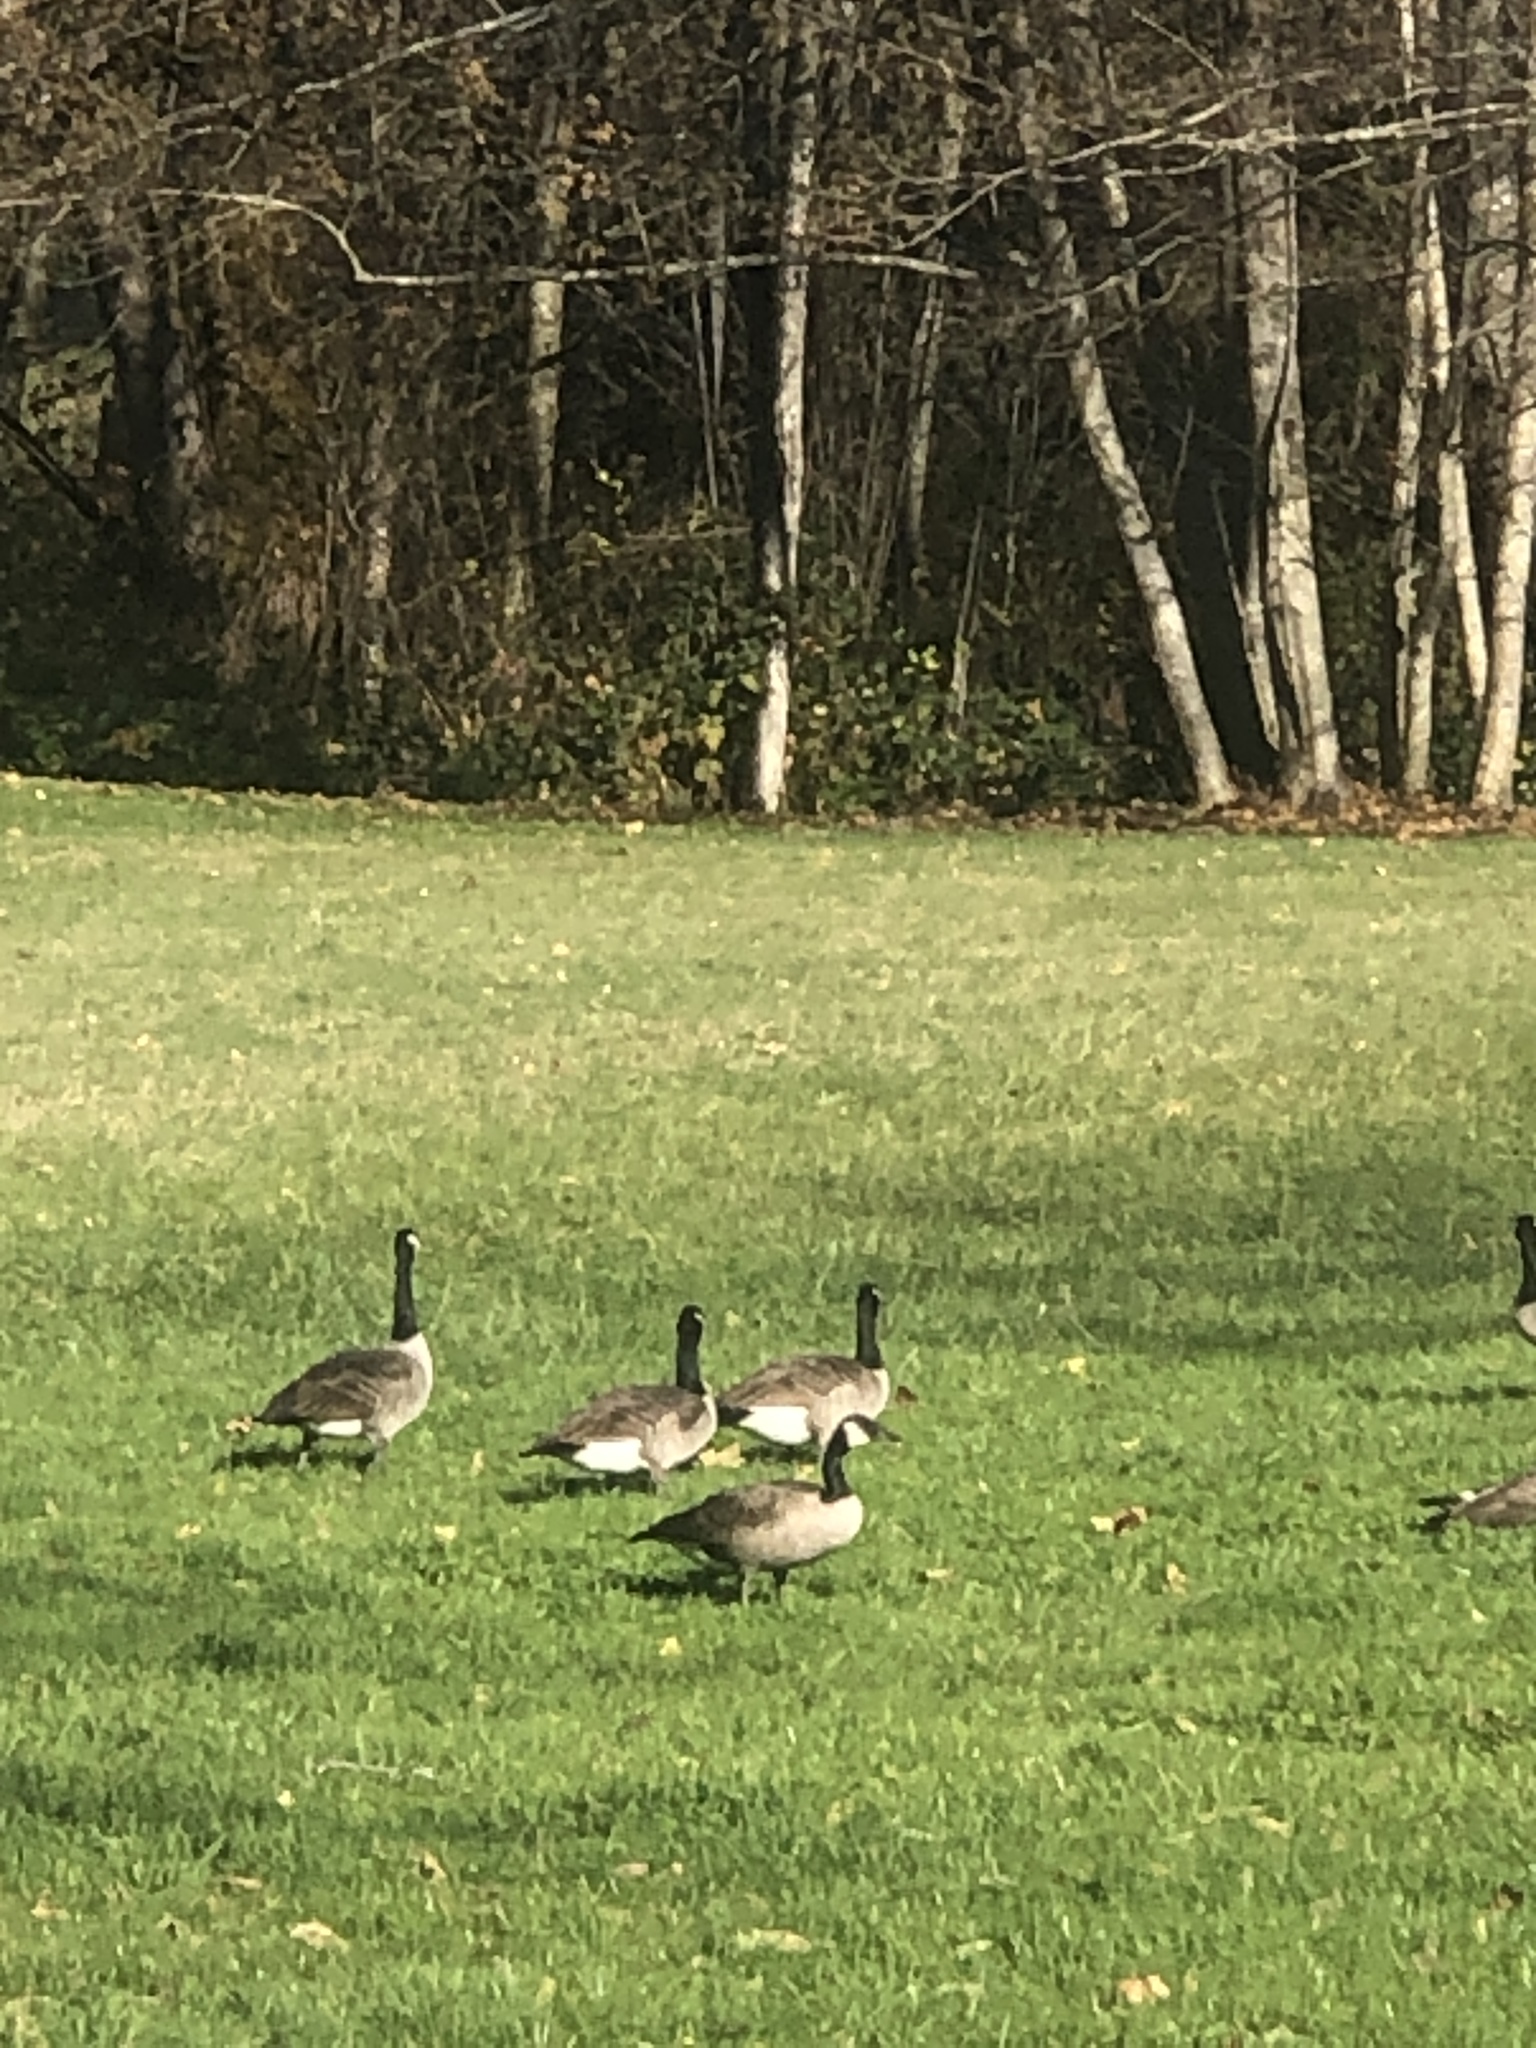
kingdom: Animalia
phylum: Chordata
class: Aves
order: Anseriformes
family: Anatidae
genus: Branta
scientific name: Branta canadensis
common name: Canada goose
